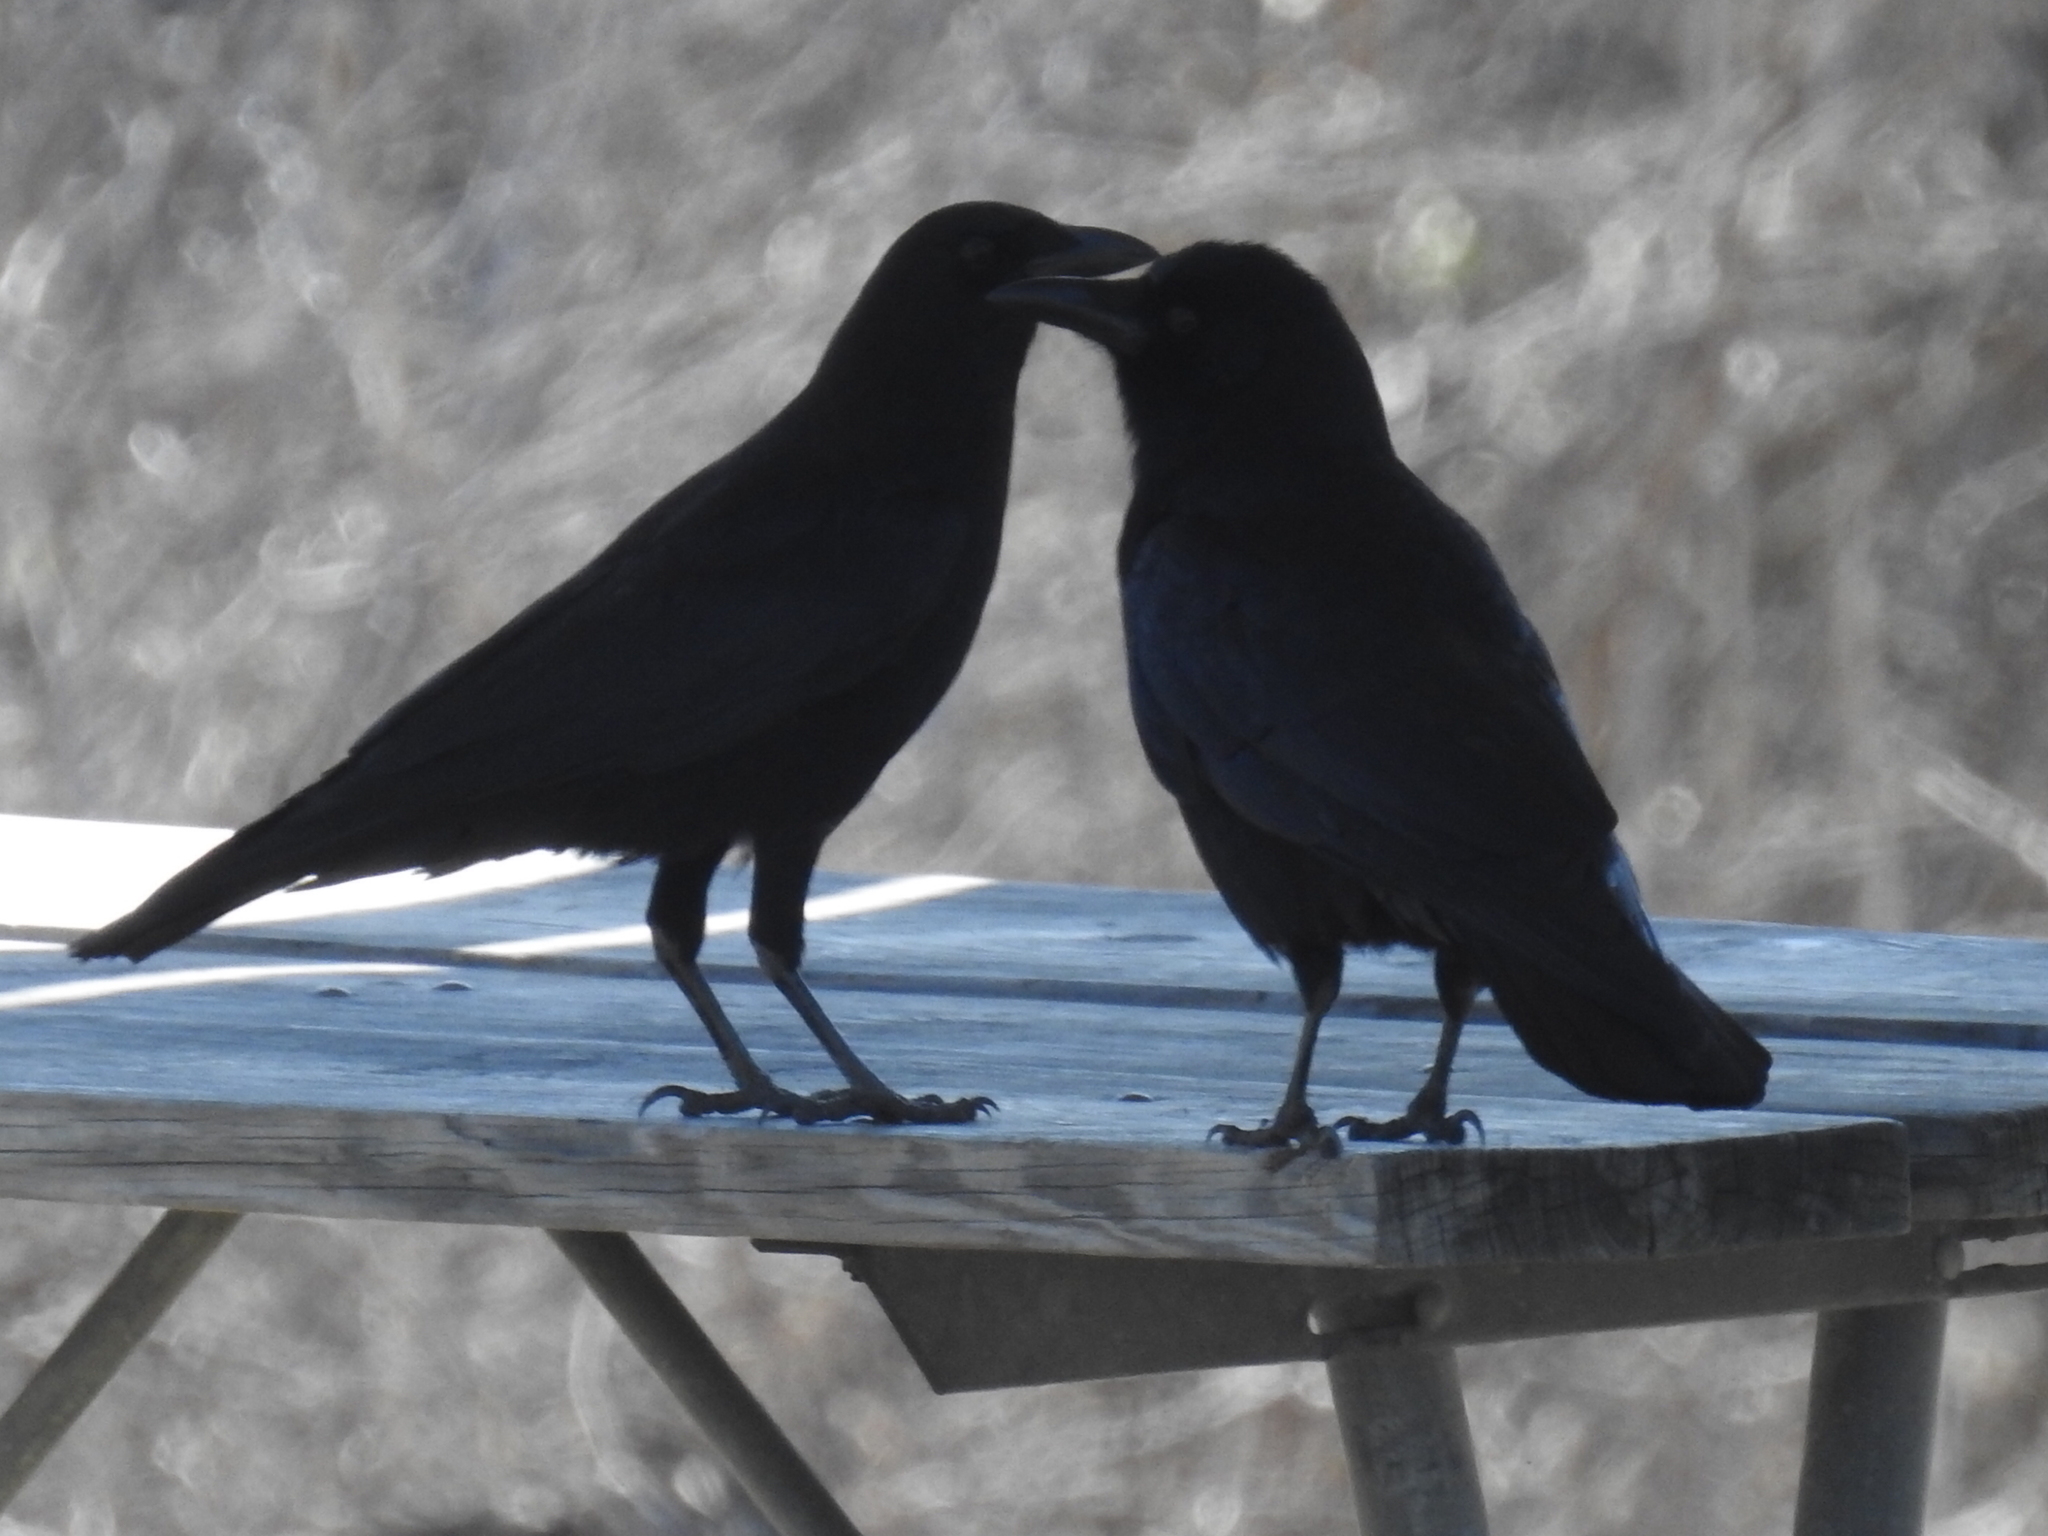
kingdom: Animalia
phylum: Chordata
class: Aves
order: Passeriformes
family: Corvidae
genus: Corvus
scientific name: Corvus brachyrhynchos
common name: American crow
